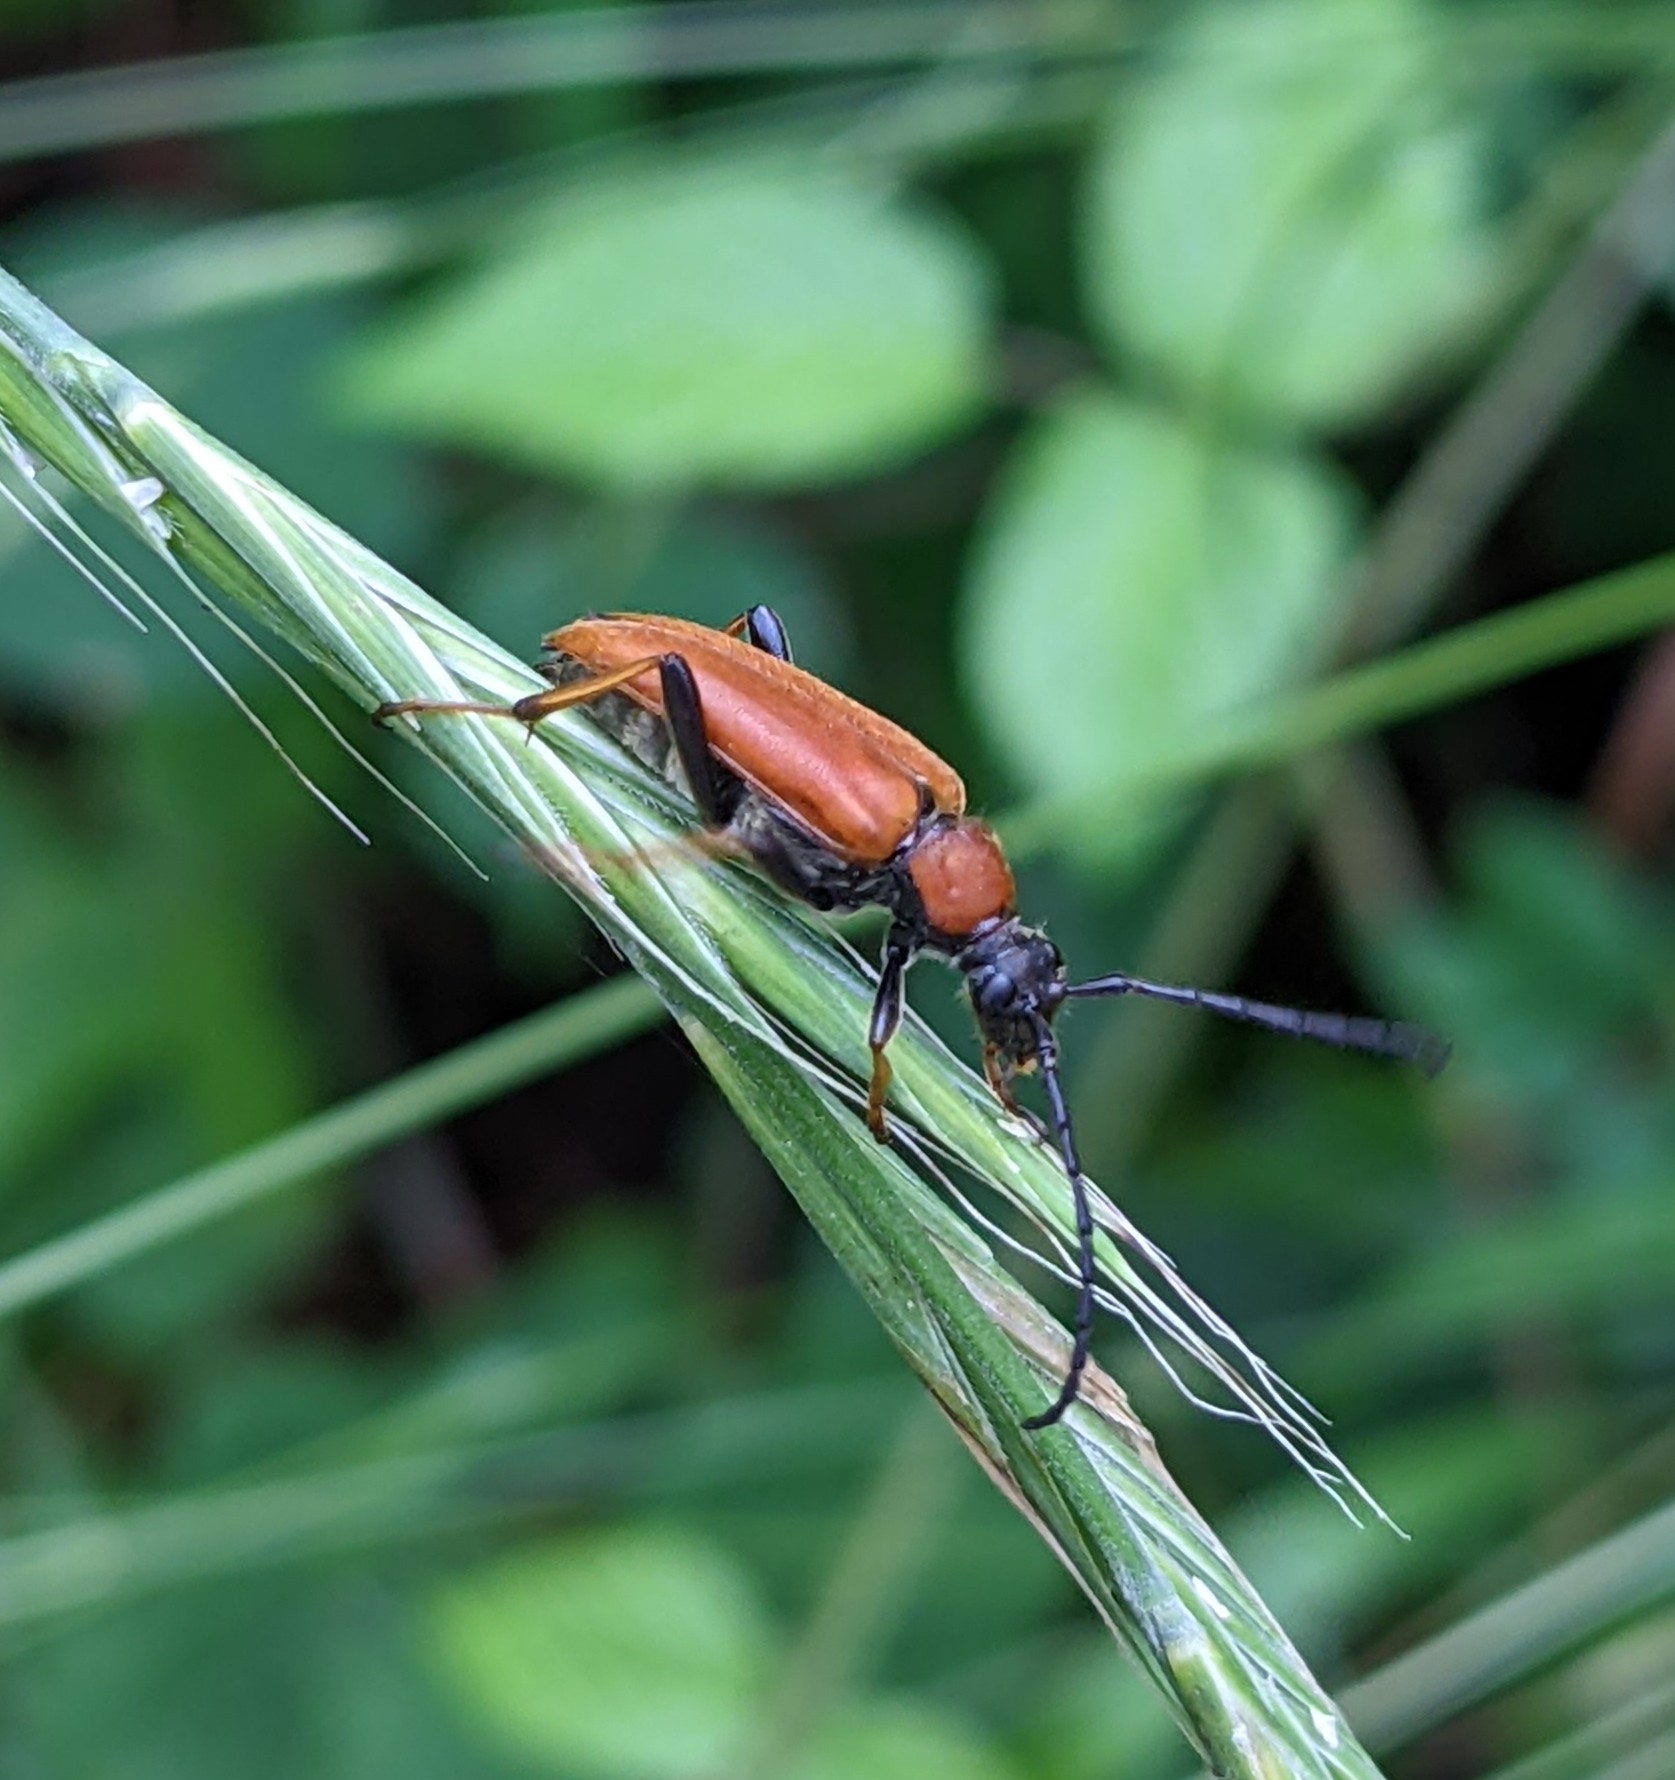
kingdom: Animalia
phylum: Arthropoda
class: Insecta
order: Coleoptera
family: Cerambycidae
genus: Stictoleptura
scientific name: Stictoleptura rubra
